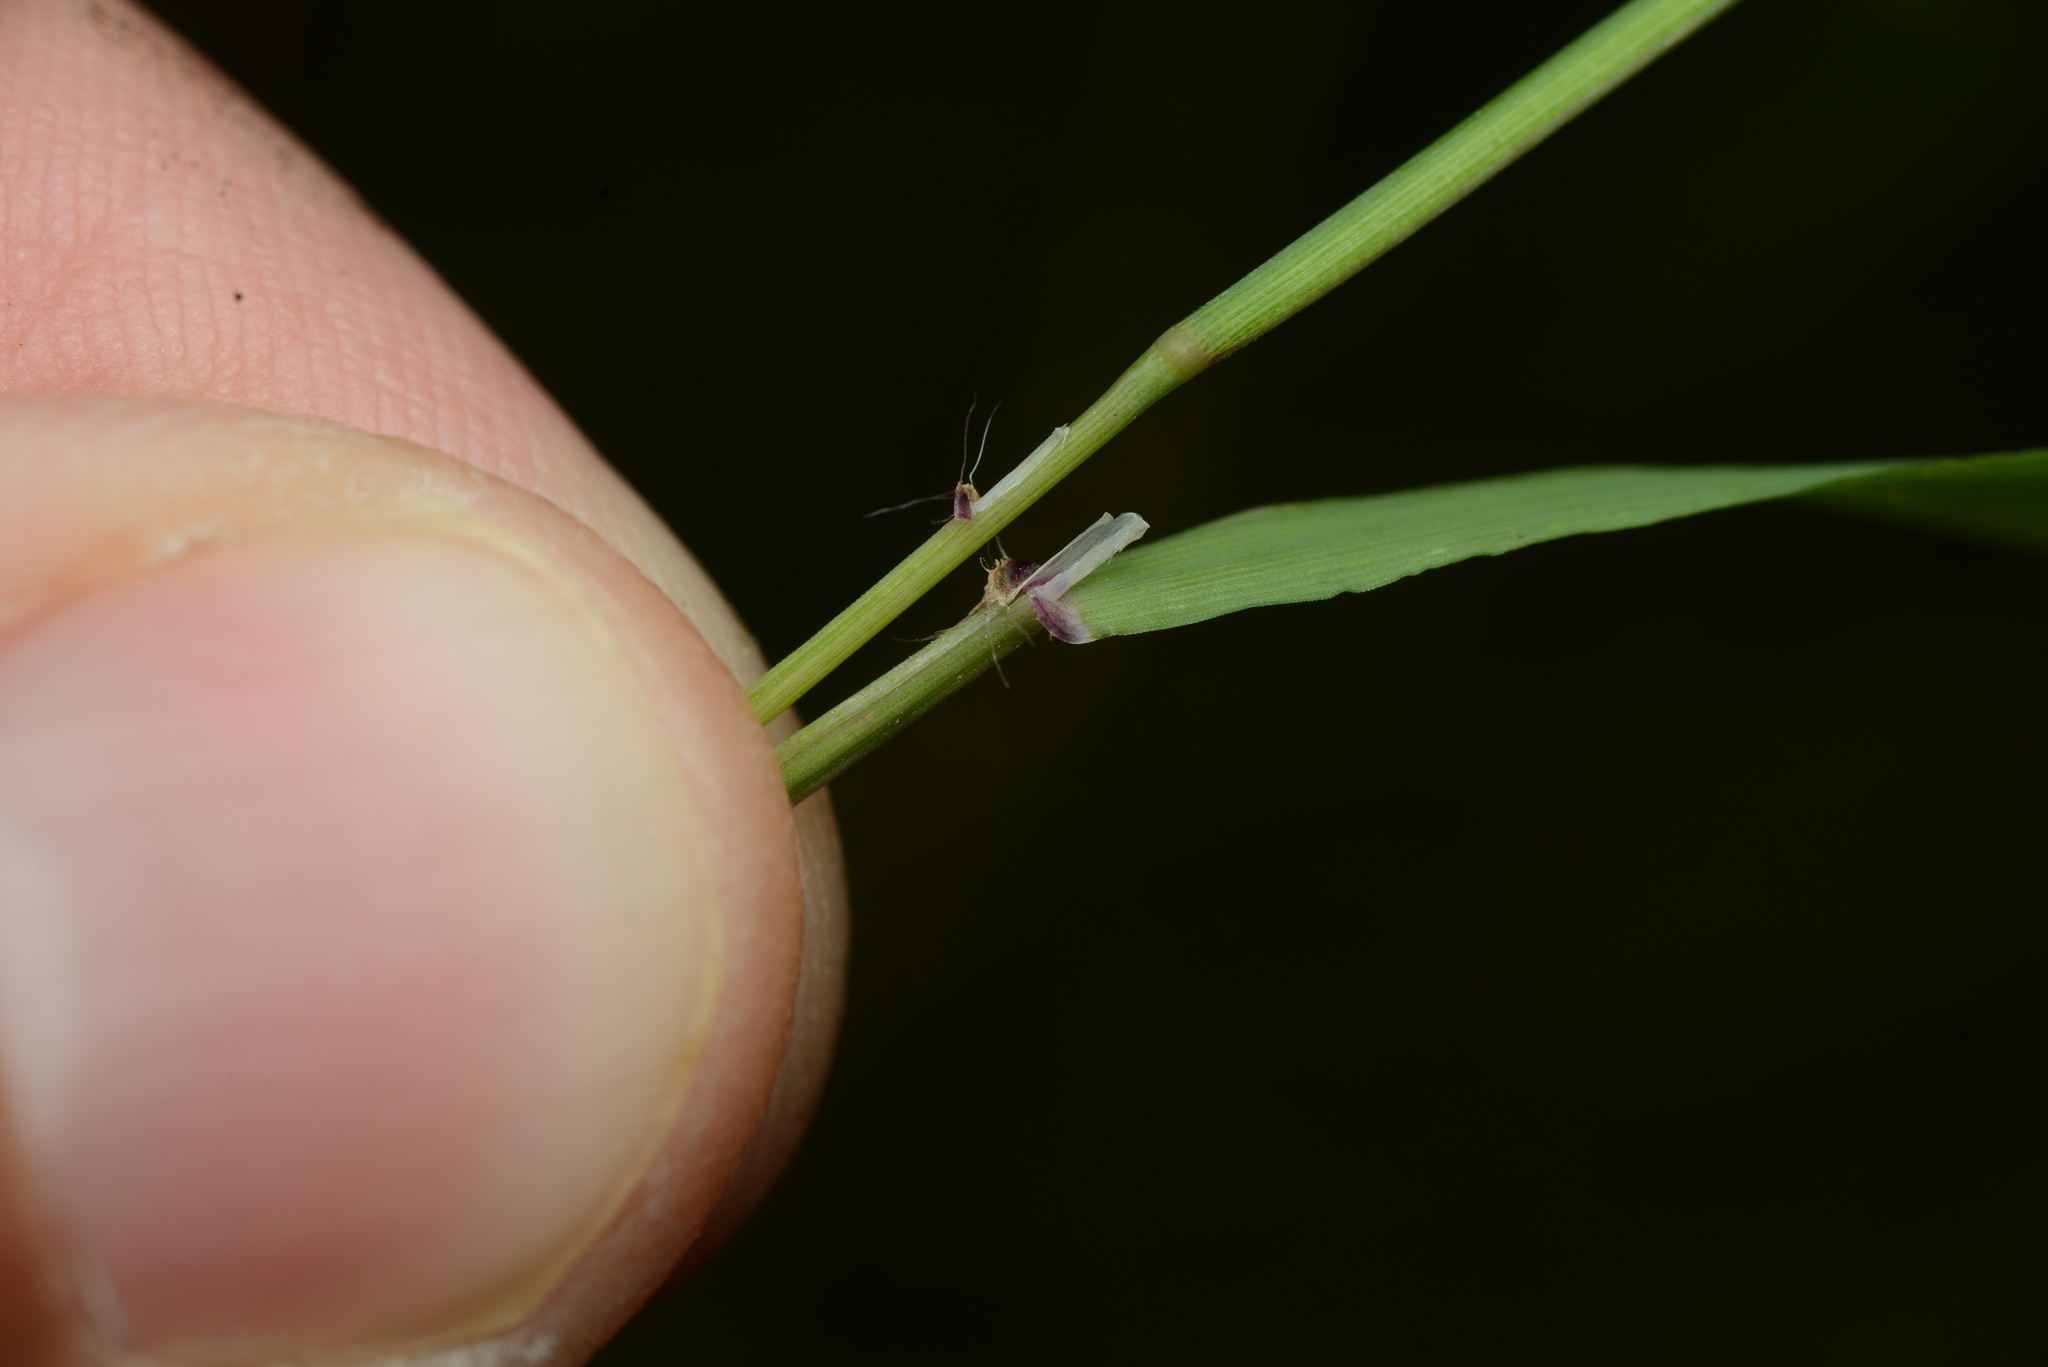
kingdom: Plantae
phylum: Tracheophyta
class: Liliopsida
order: Poales
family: Poaceae
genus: Ehrharta
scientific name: Ehrharta erecta
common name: Panic veldtgrass
